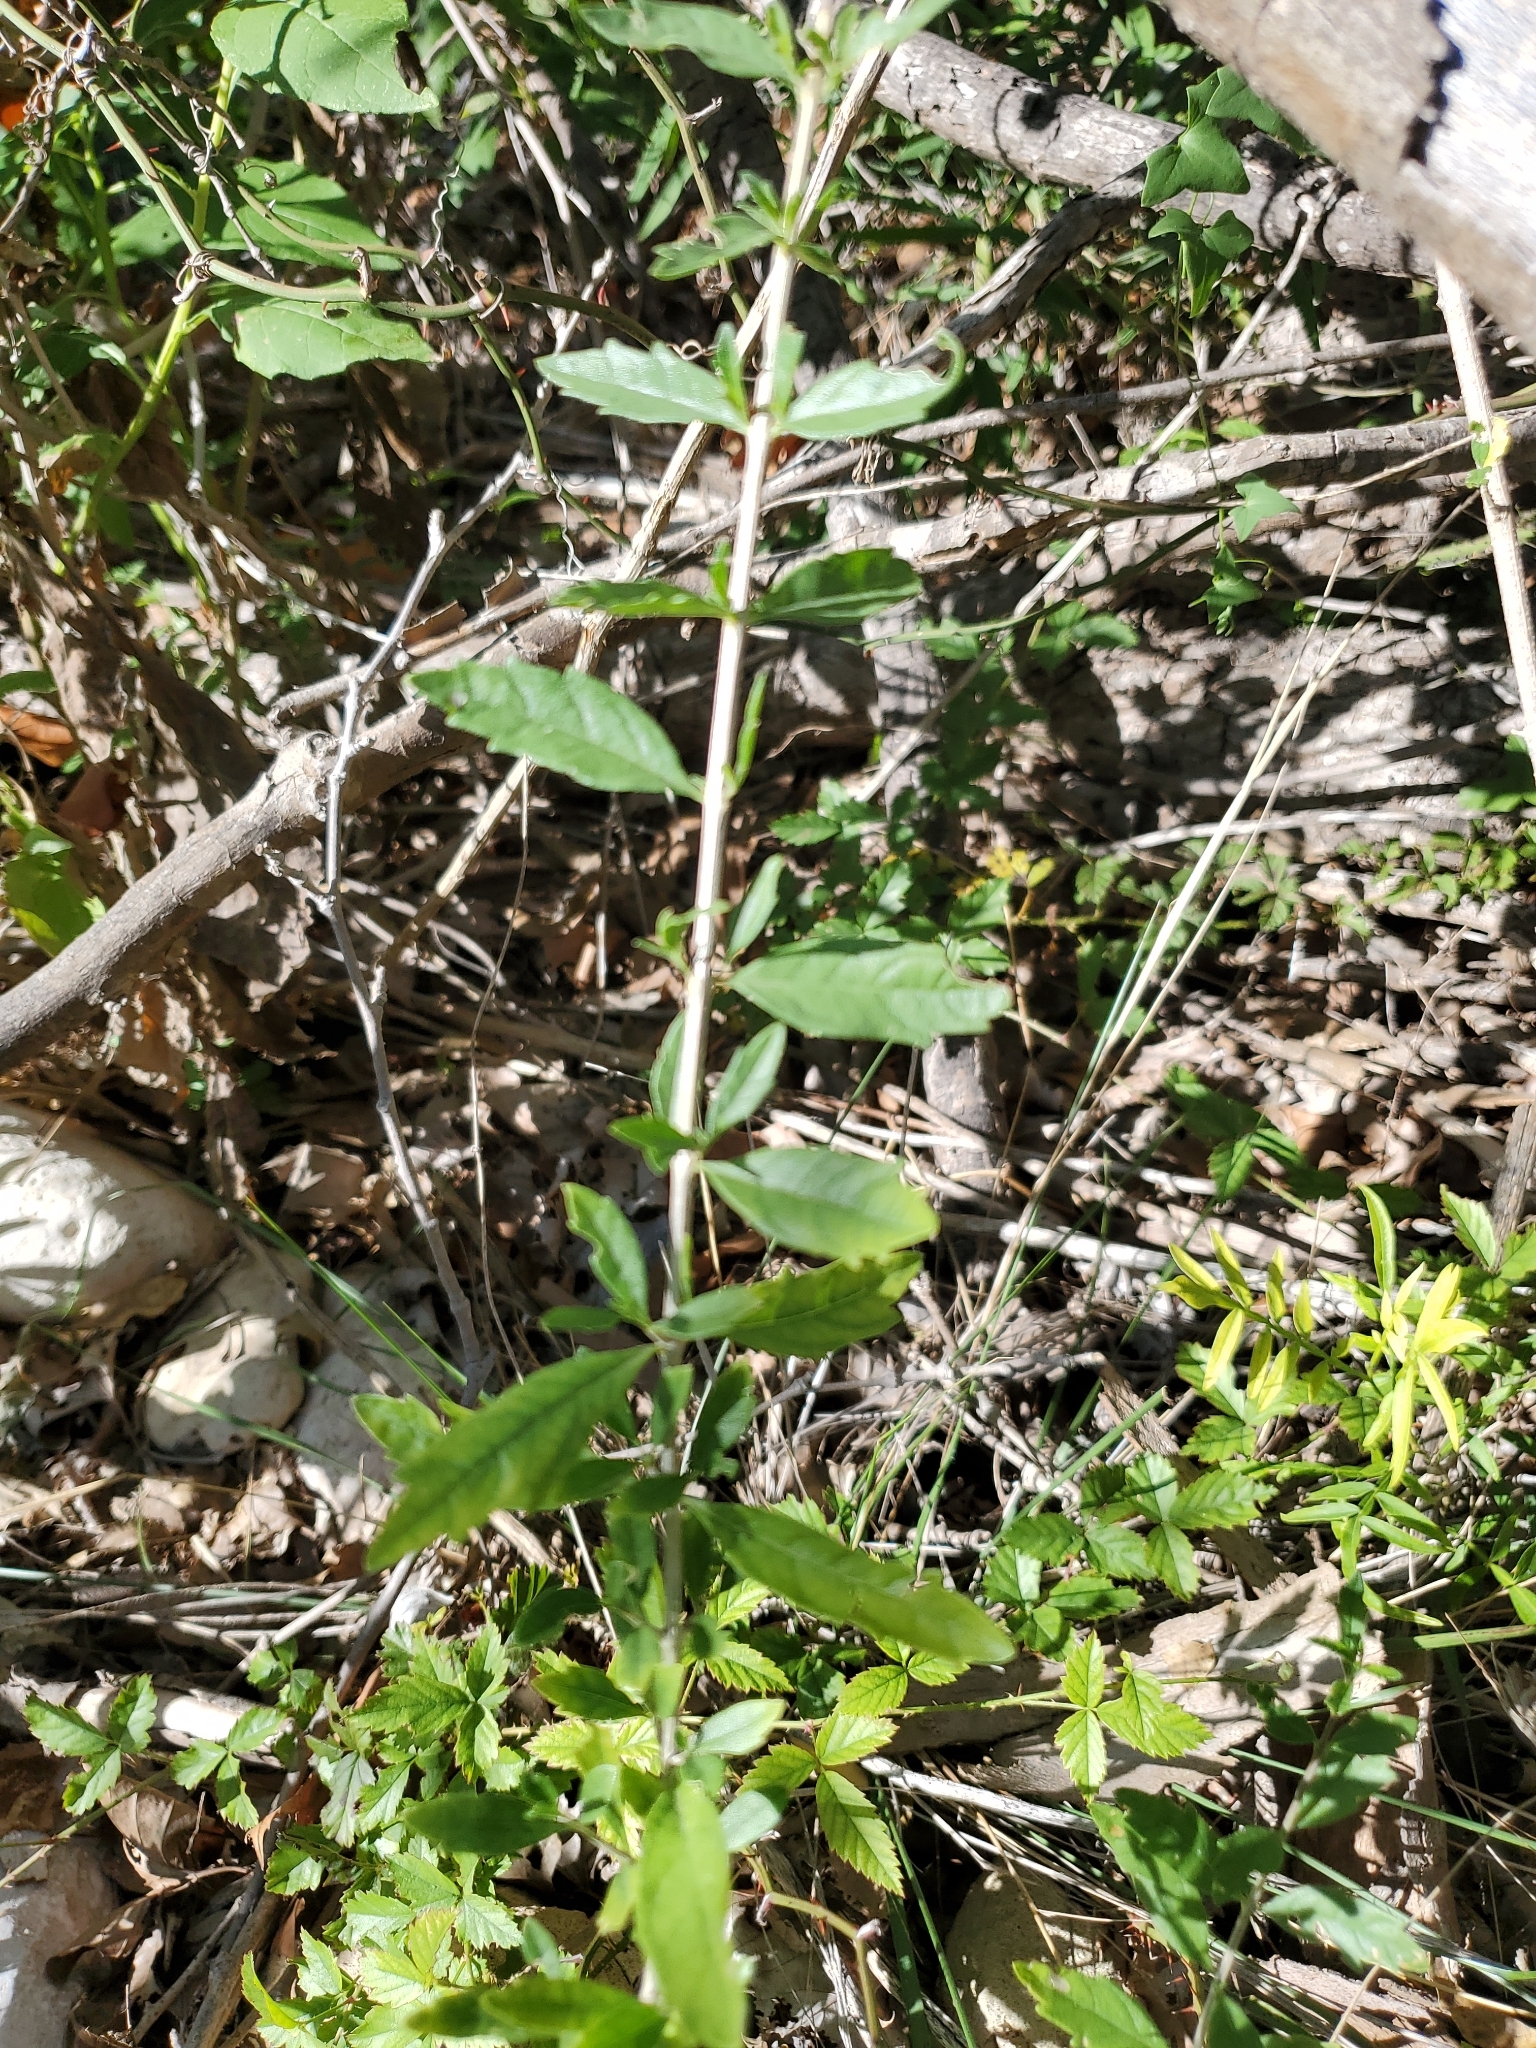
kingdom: Plantae
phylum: Tracheophyta
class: Magnoliopsida
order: Lamiales
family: Verbenaceae
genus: Aloysia
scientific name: Aloysia gratissima
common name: Common bee-brush
